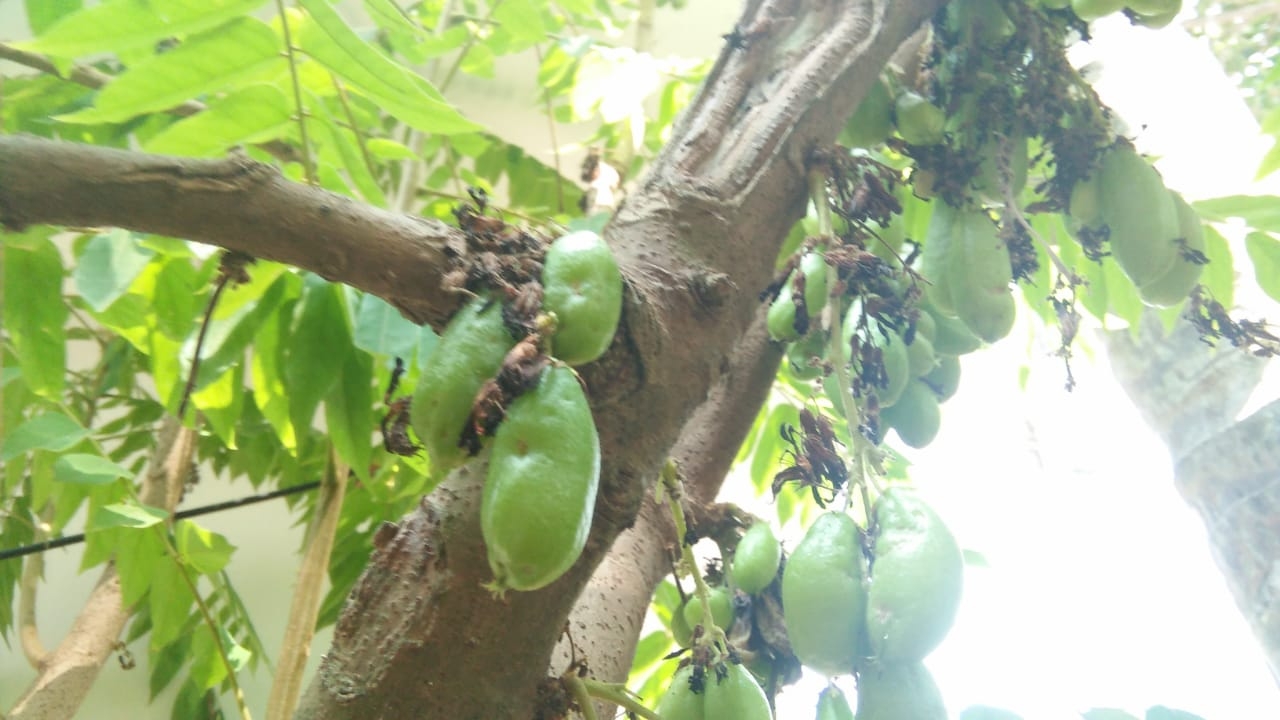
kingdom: Plantae
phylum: Tracheophyta
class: Magnoliopsida
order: Oxalidales
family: Oxalidaceae
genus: Averrhoa
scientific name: Averrhoa bilimbi
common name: Bilimbi
